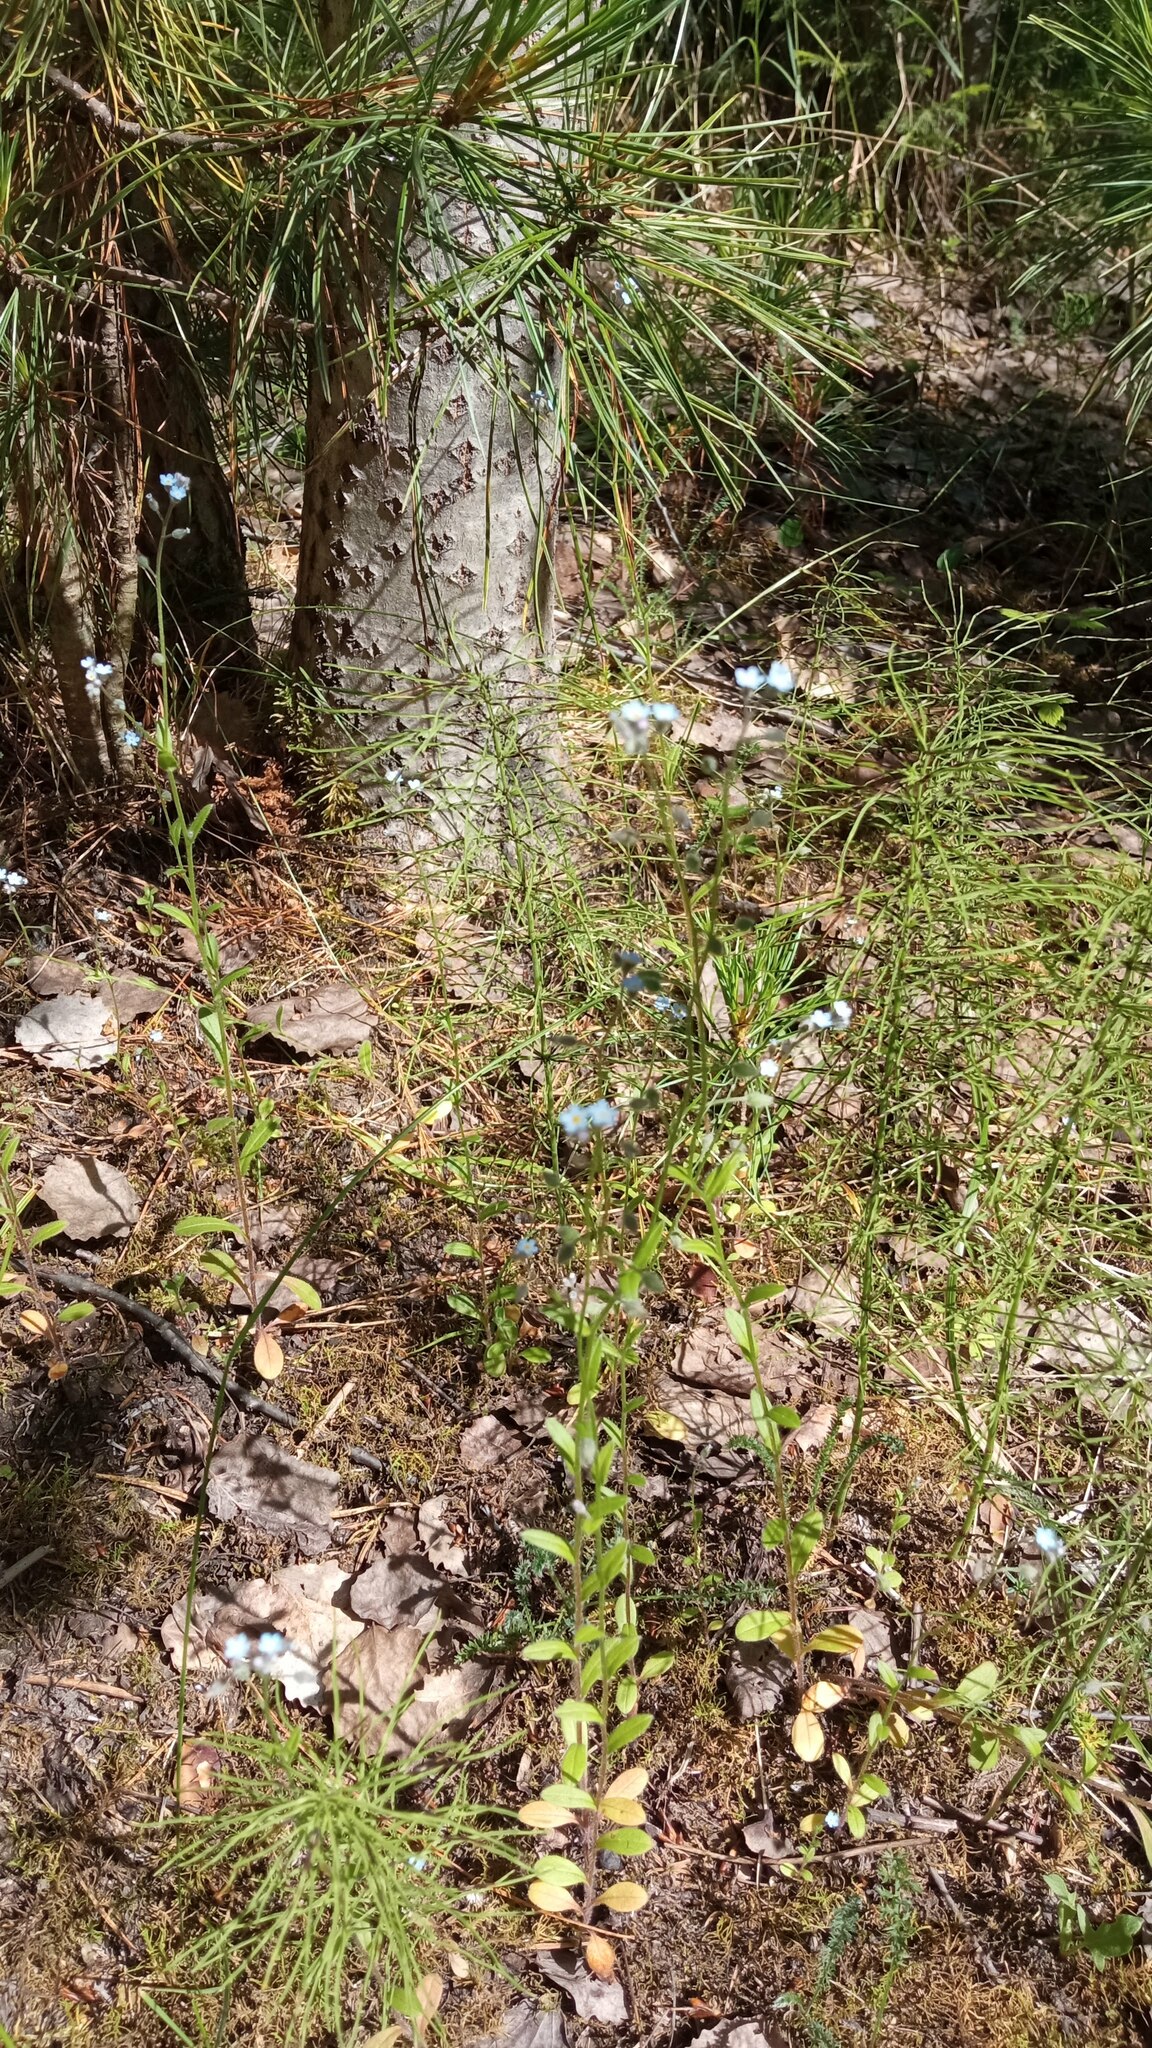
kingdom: Plantae
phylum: Tracheophyta
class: Magnoliopsida
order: Boraginales
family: Boraginaceae
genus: Hackelia
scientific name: Hackelia deflexa
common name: Nodding stickseed
